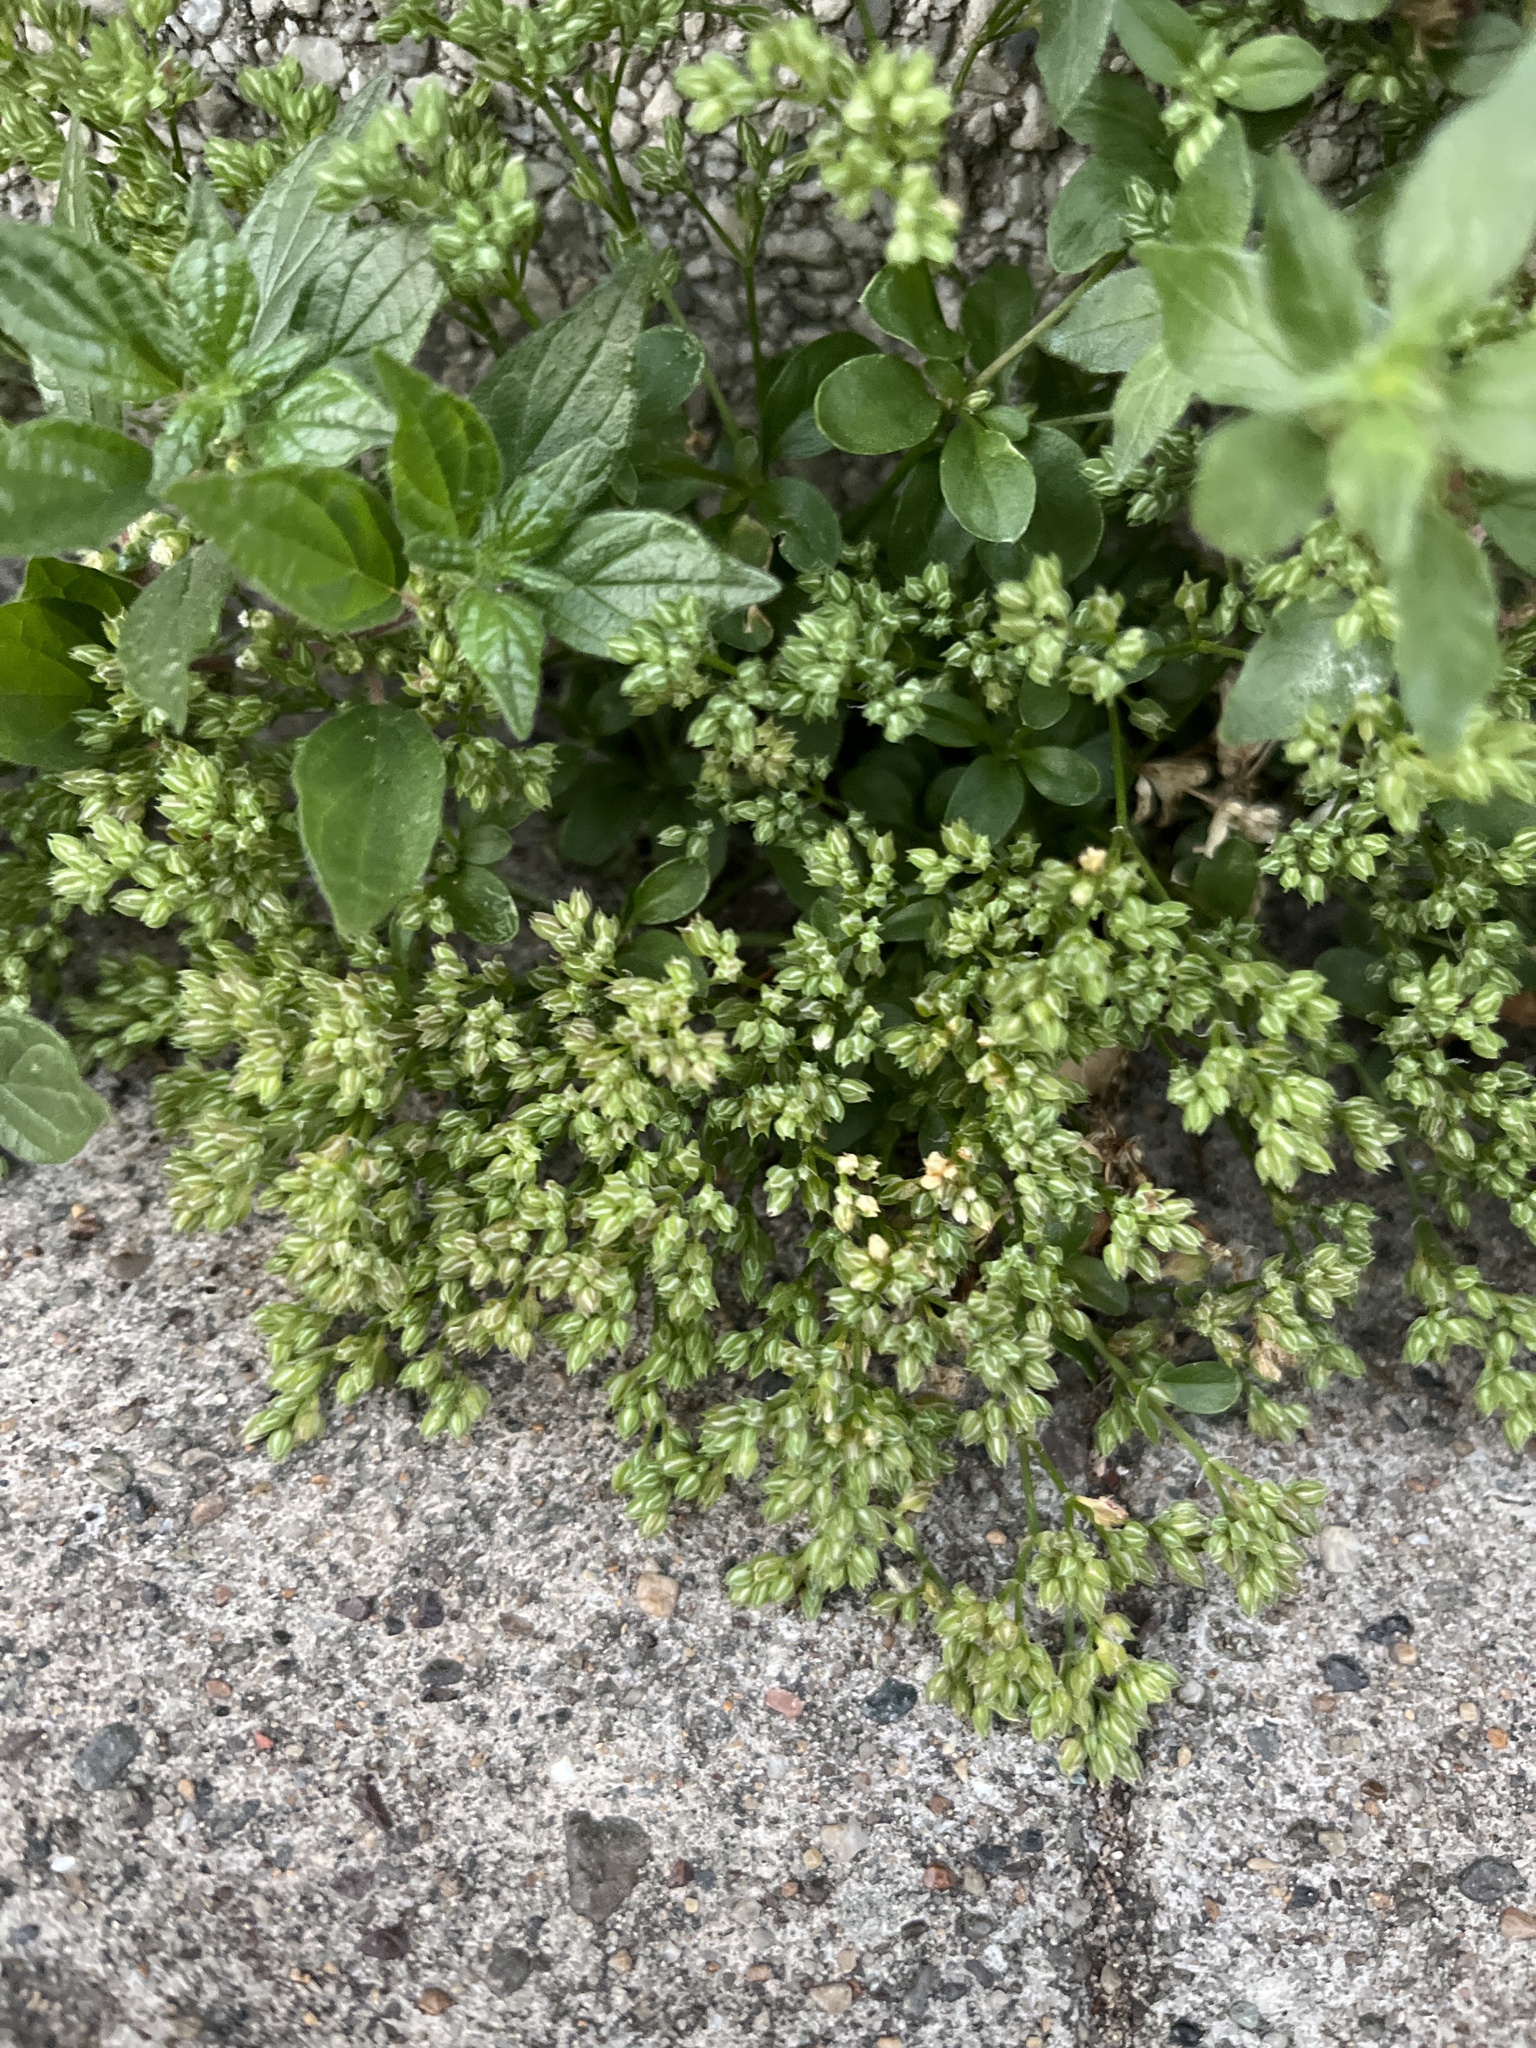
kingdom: Plantae
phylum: Tracheophyta
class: Magnoliopsida
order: Caryophyllales
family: Caryophyllaceae
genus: Polycarpon
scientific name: Polycarpon tetraphyllum
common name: Four-leaved all-seed
